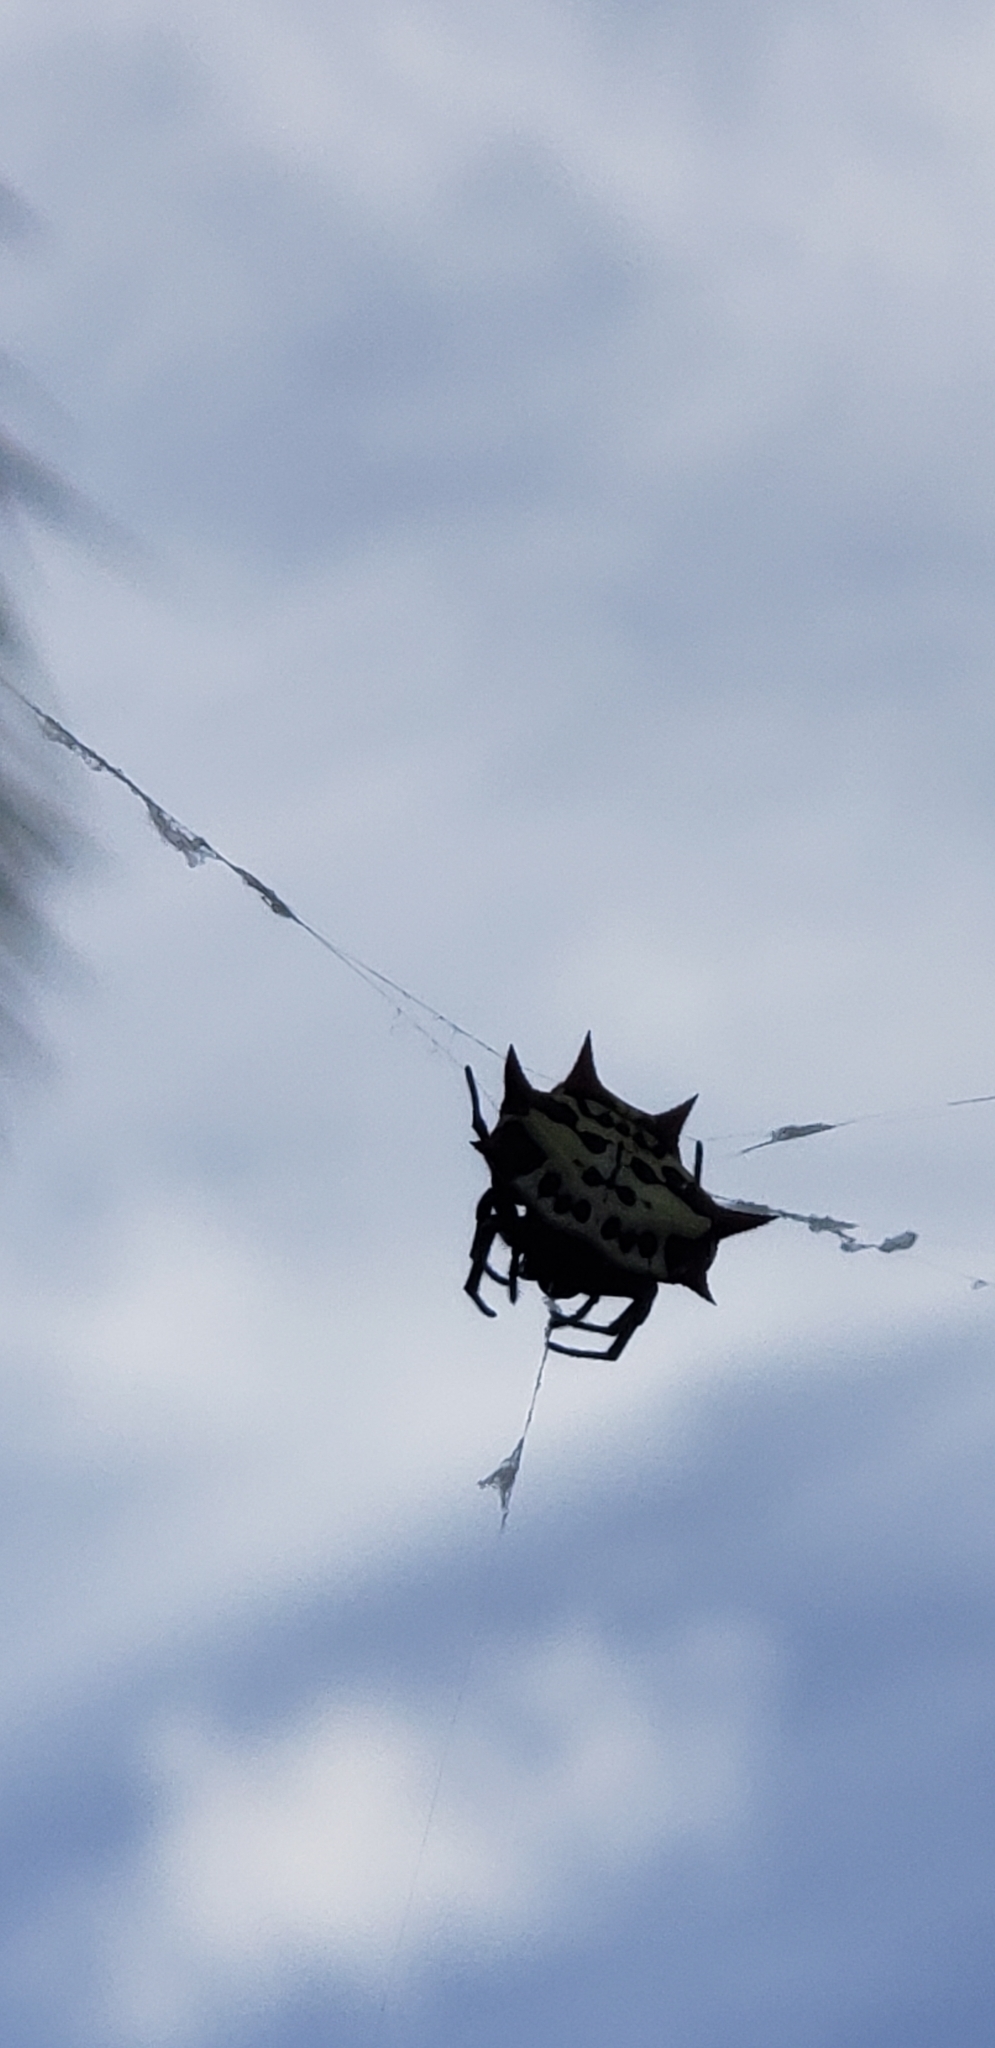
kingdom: Animalia
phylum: Arthropoda
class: Arachnida
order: Araneae
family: Araneidae
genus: Gasteracantha
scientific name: Gasteracantha cancriformis
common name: Orb weavers
